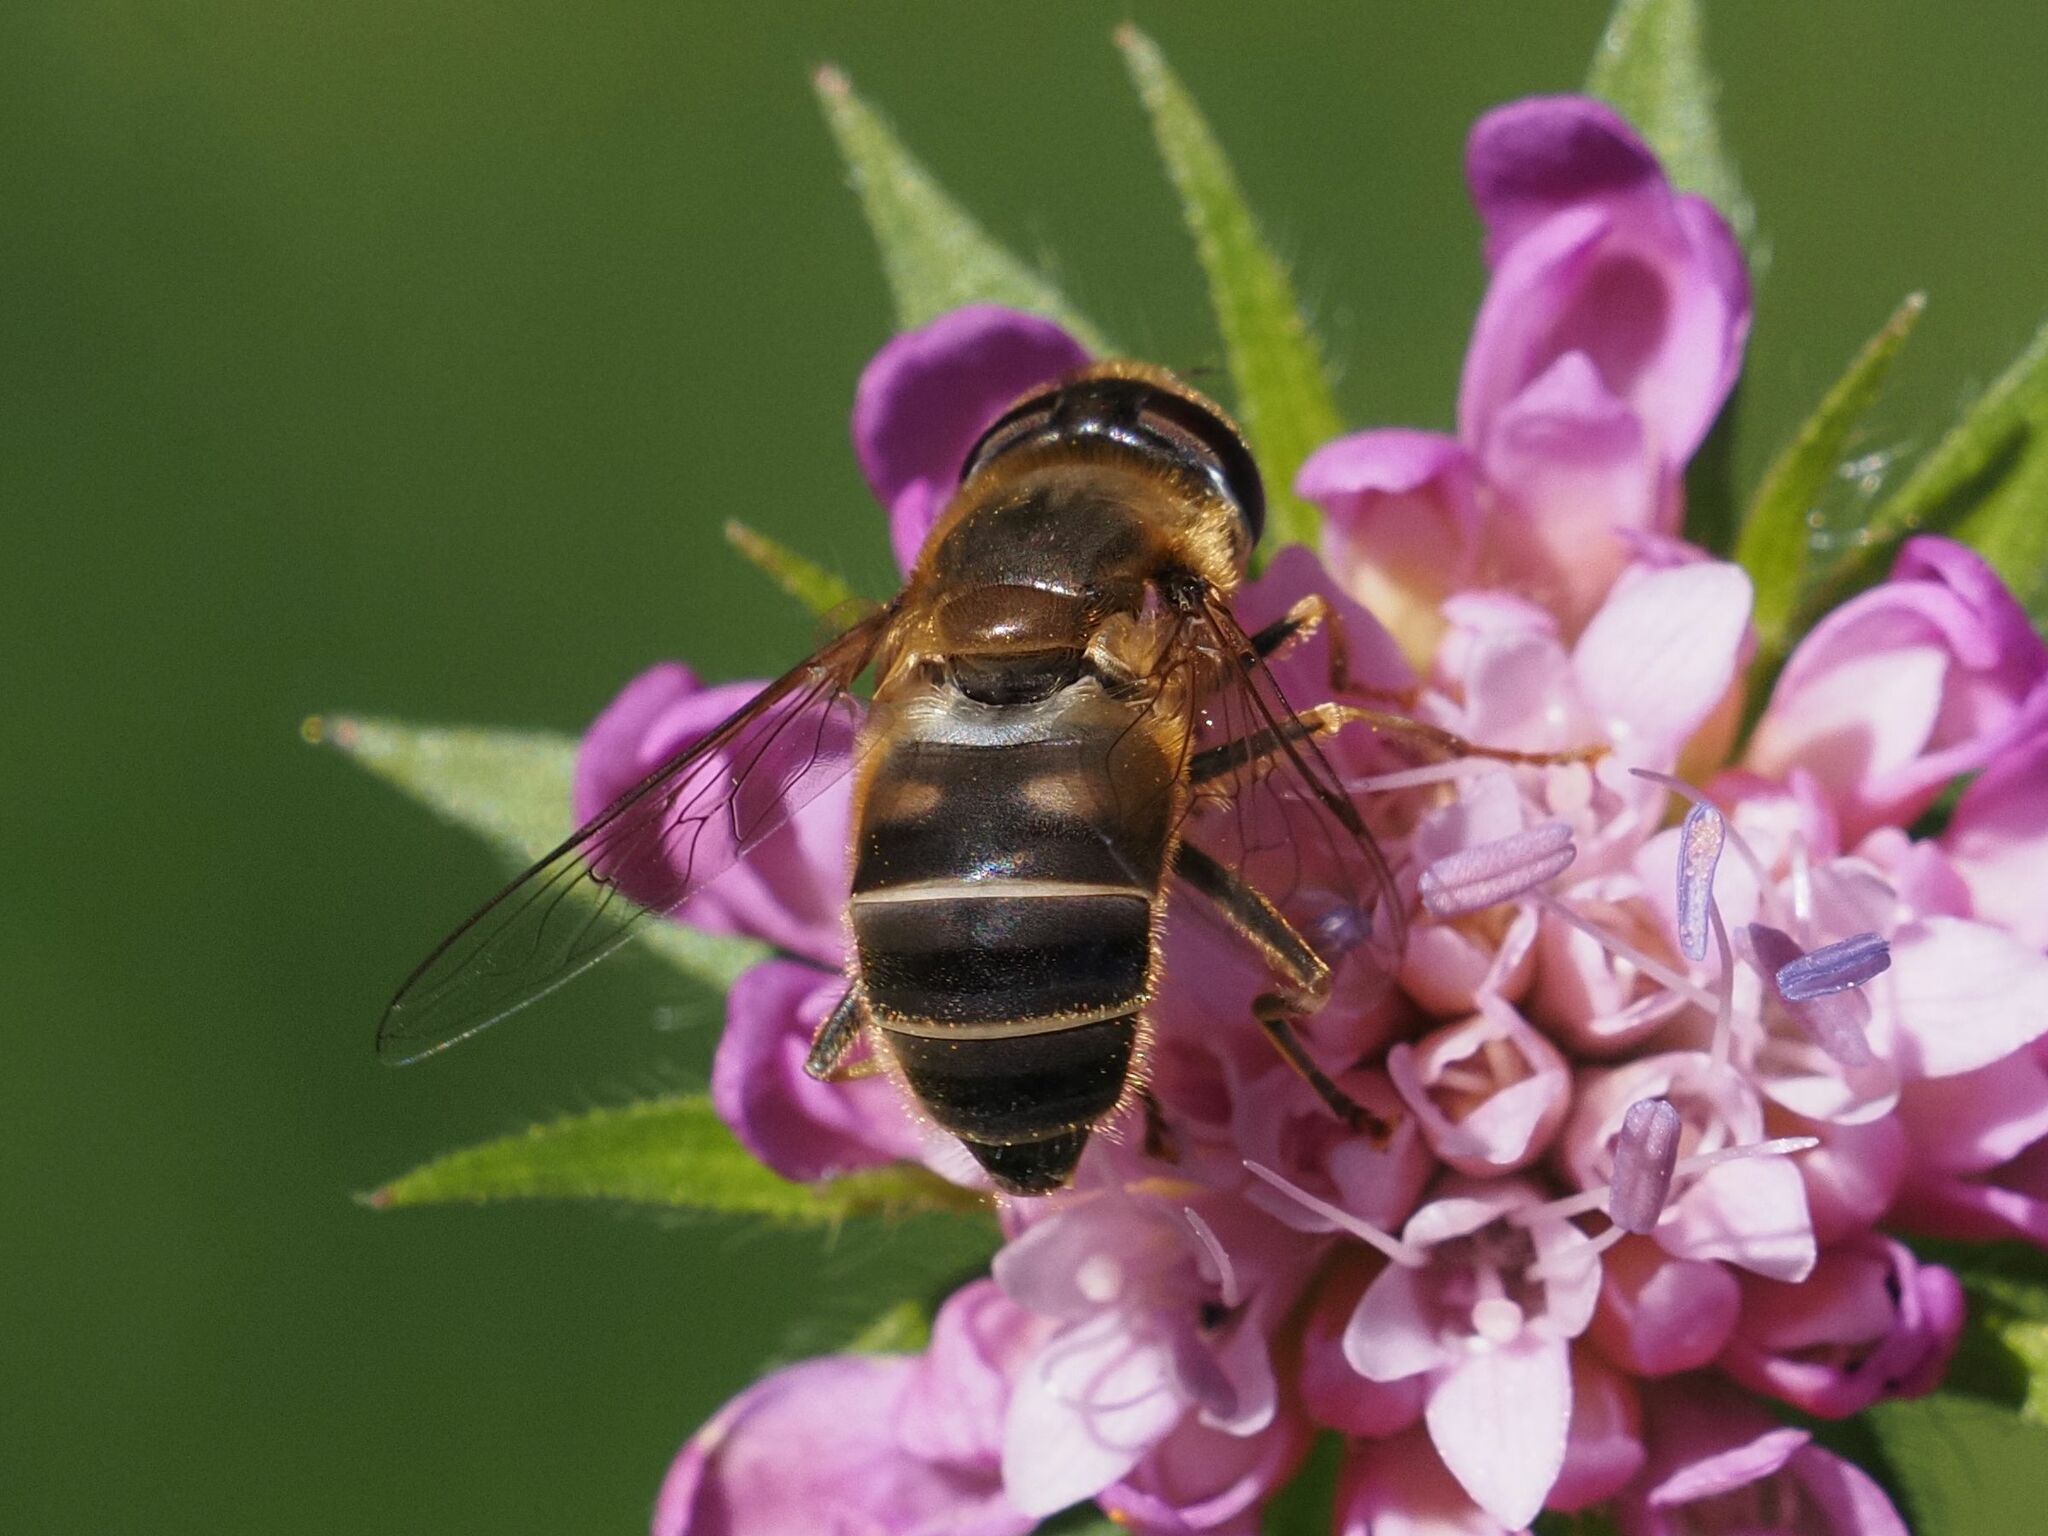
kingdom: Animalia
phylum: Arthropoda
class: Insecta
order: Diptera
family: Syrphidae
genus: Eristalis
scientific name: Eristalis pertinax
